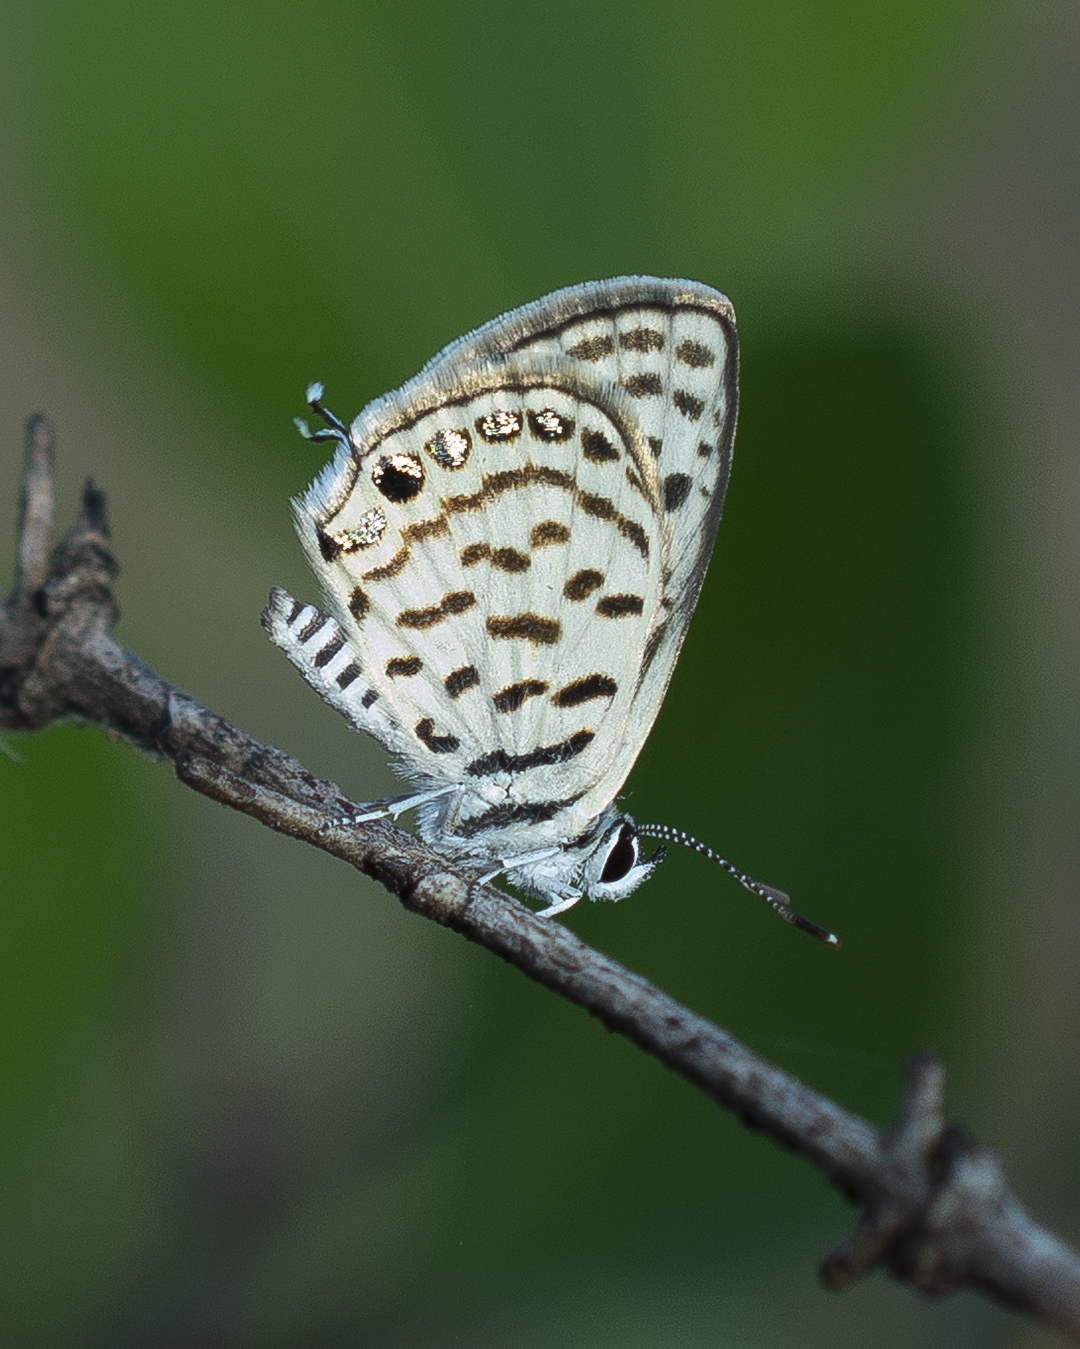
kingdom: Animalia
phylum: Arthropoda
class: Insecta
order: Lepidoptera
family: Lycaenidae
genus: Tarucus
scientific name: Tarucus balkanica
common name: Little tiger blue
